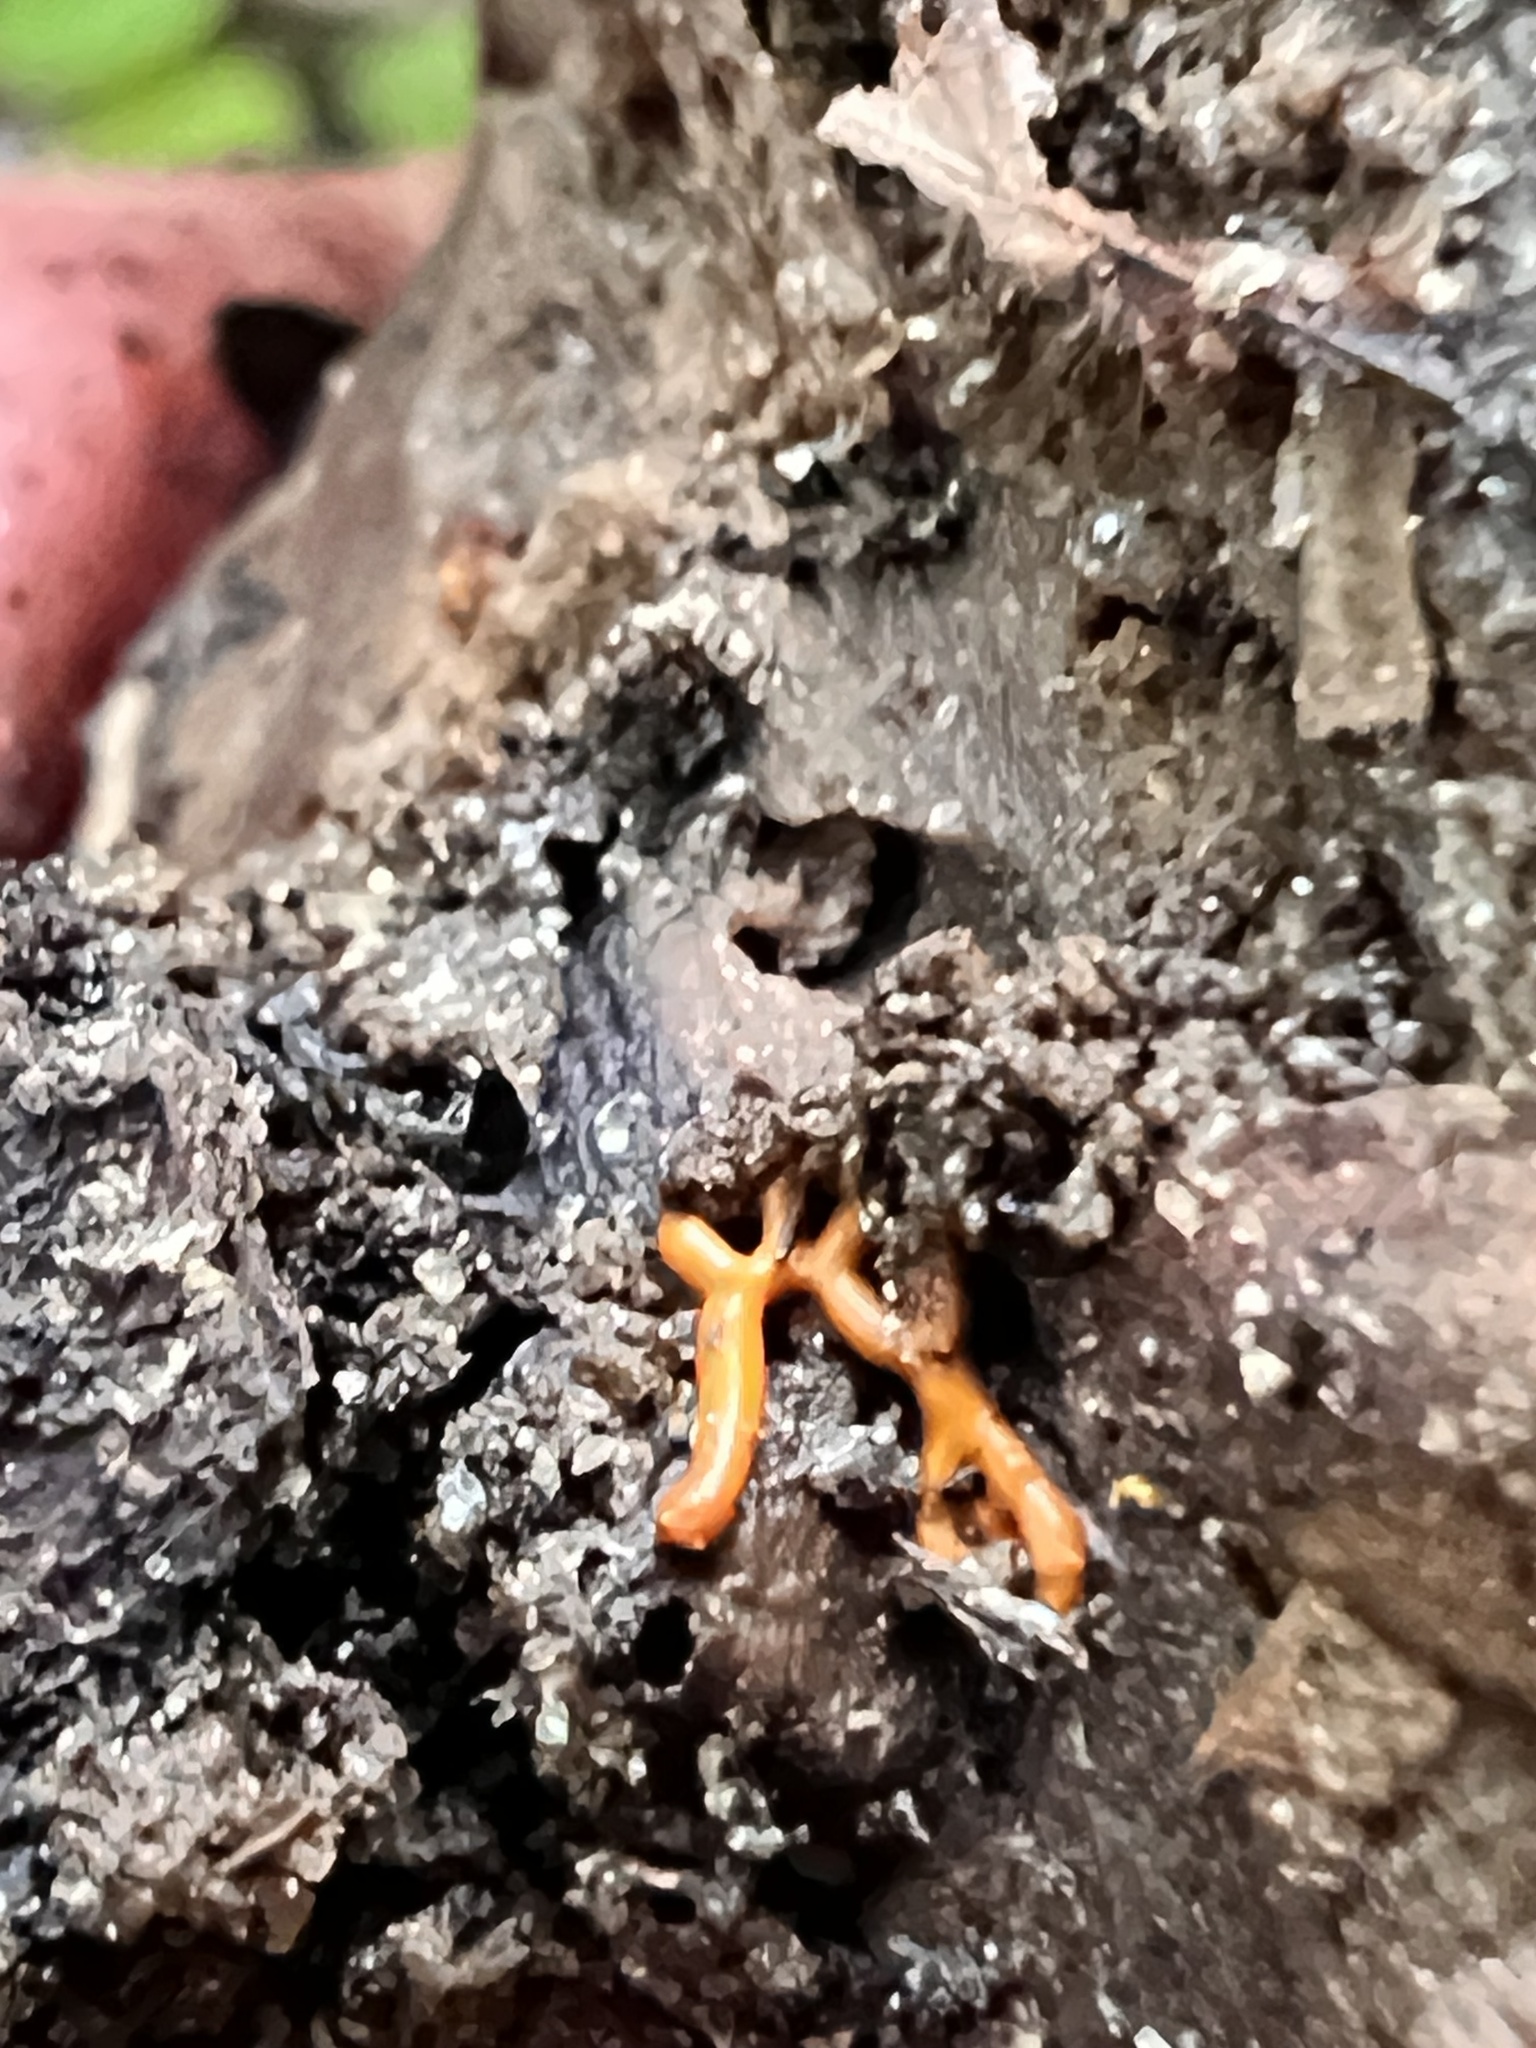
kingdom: Protozoa
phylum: Mycetozoa
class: Myxomycetes
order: Trichiales
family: Arcyriaceae
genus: Hemitrichia
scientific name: Hemitrichia serpula
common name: Pretzel slime mold
